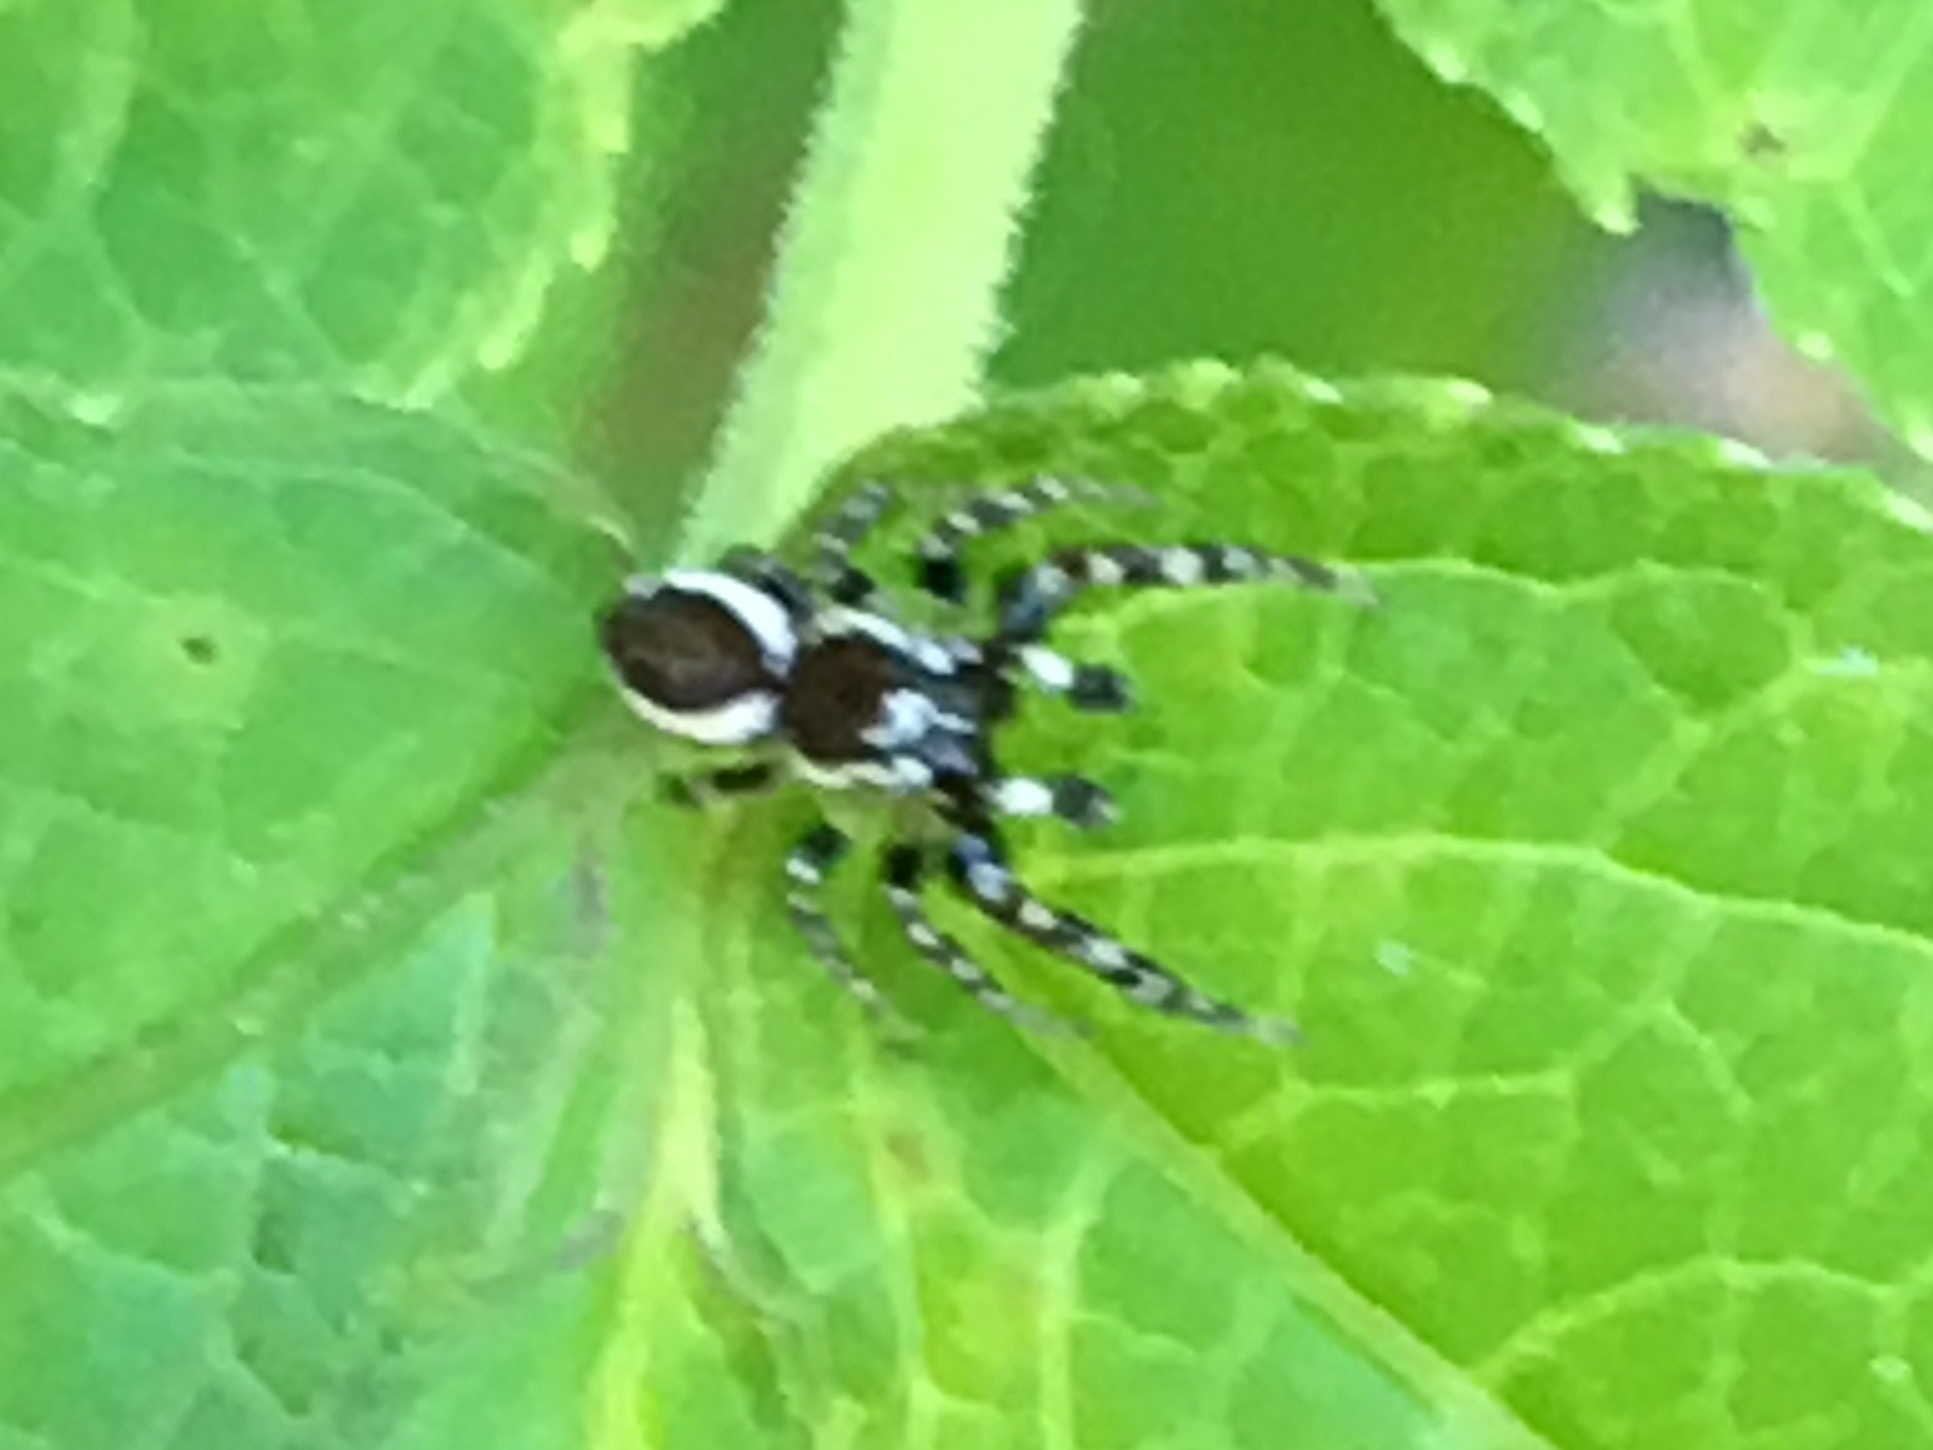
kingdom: Animalia
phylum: Arthropoda
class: Arachnida
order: Araneae
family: Salticidae
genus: Pelegrina
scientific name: Pelegrina proterva
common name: Common white-cheeked jumping spider
